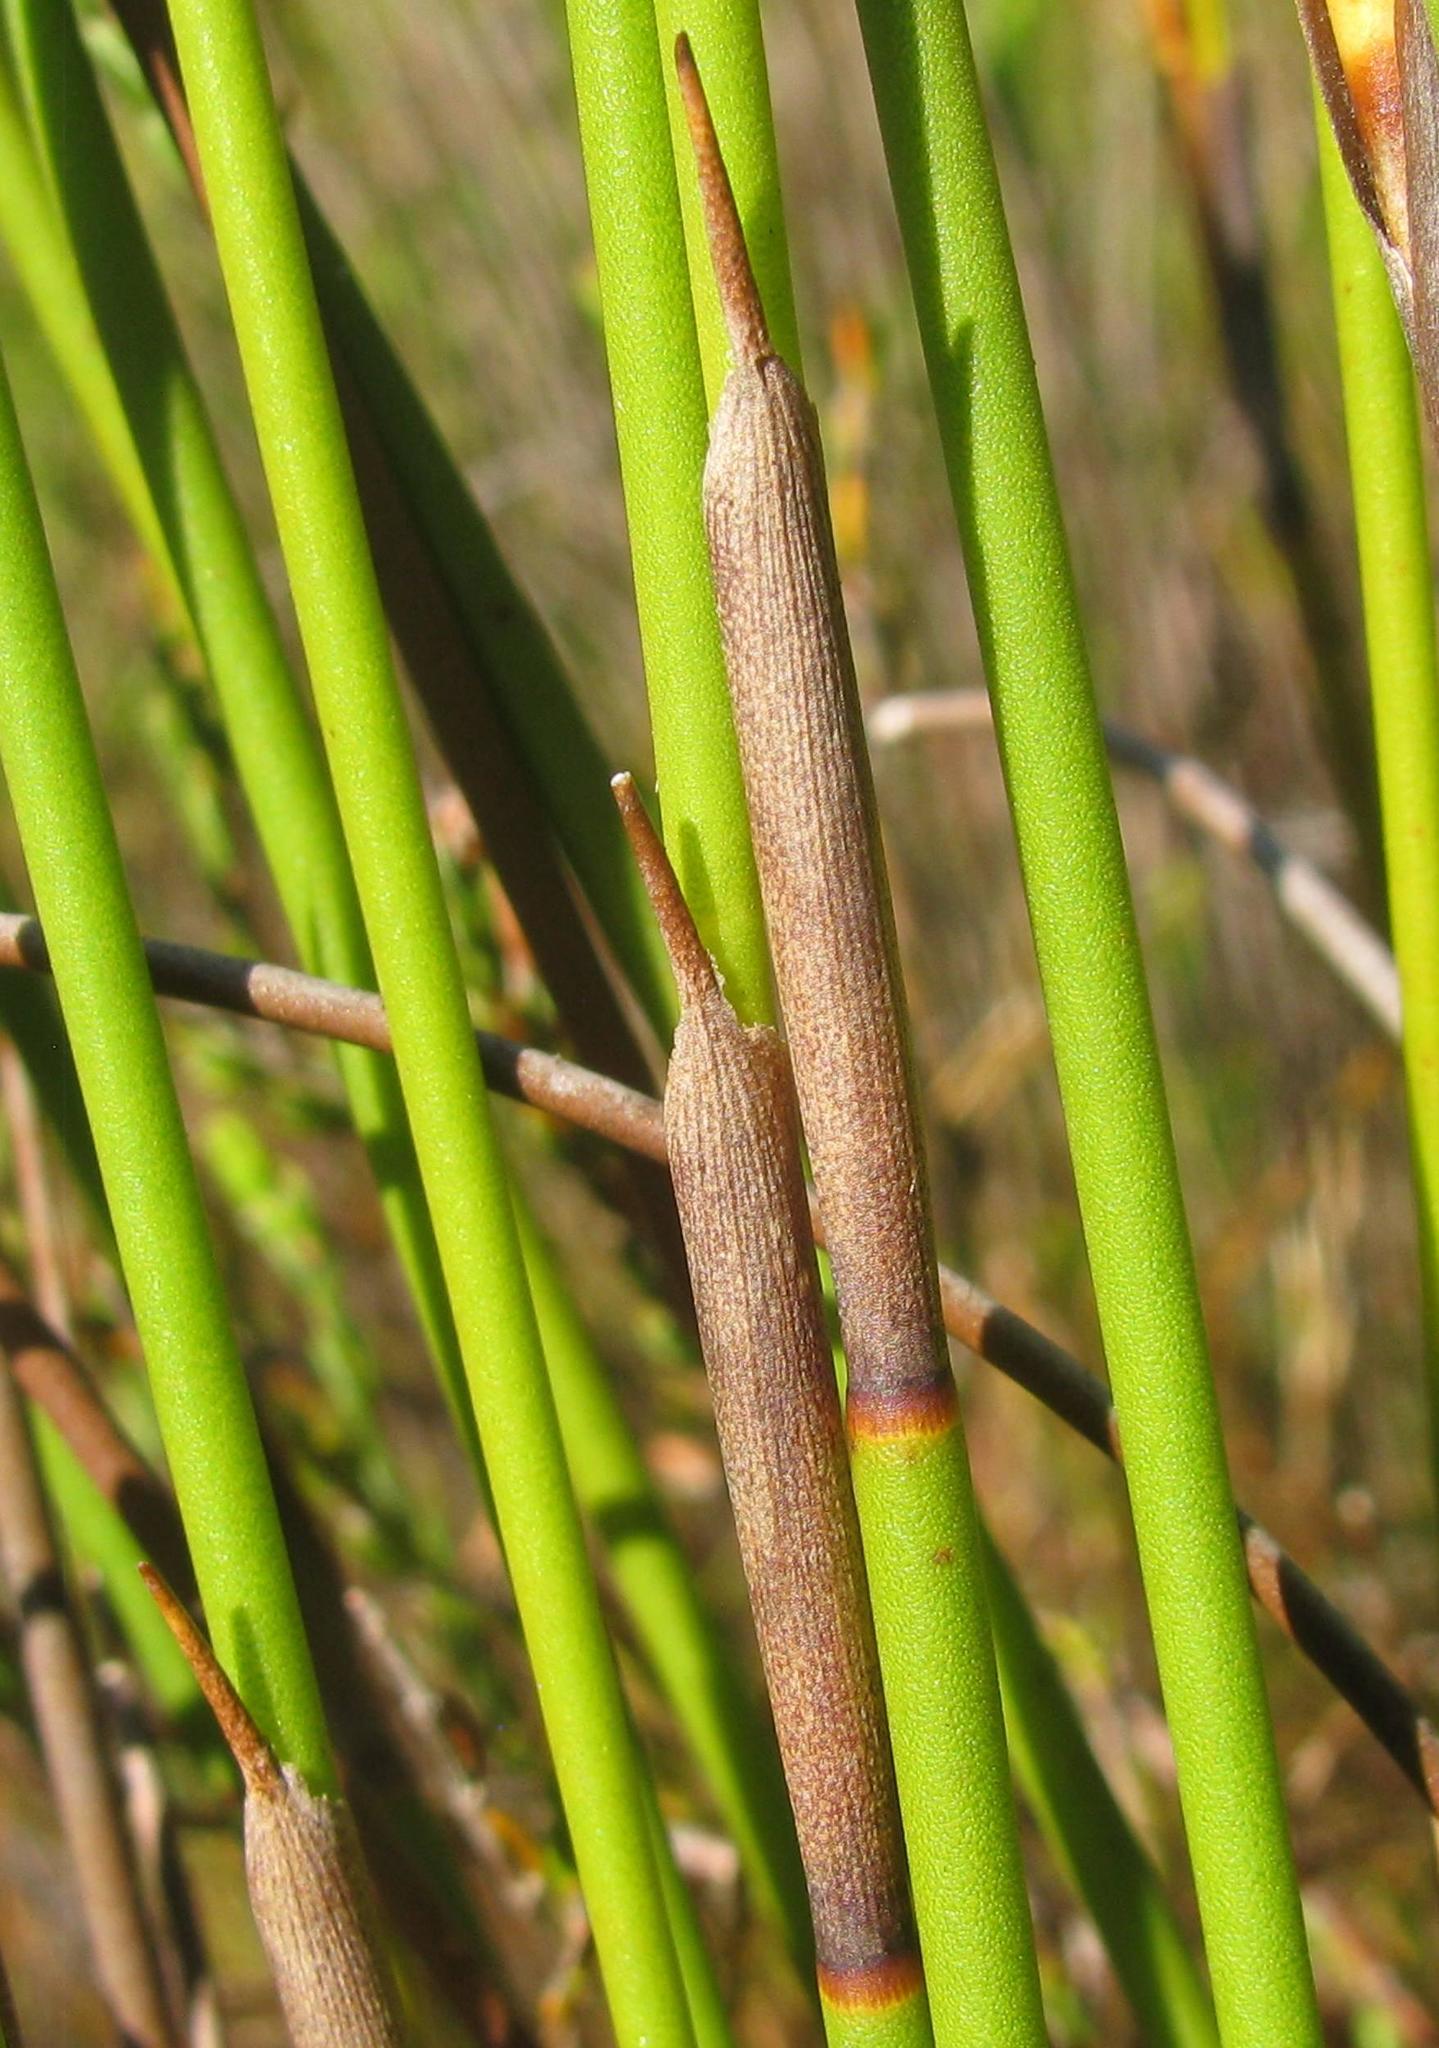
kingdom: Plantae
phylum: Tracheophyta
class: Liliopsida
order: Poales
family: Restionaceae
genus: Restio
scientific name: Restio bifarius
